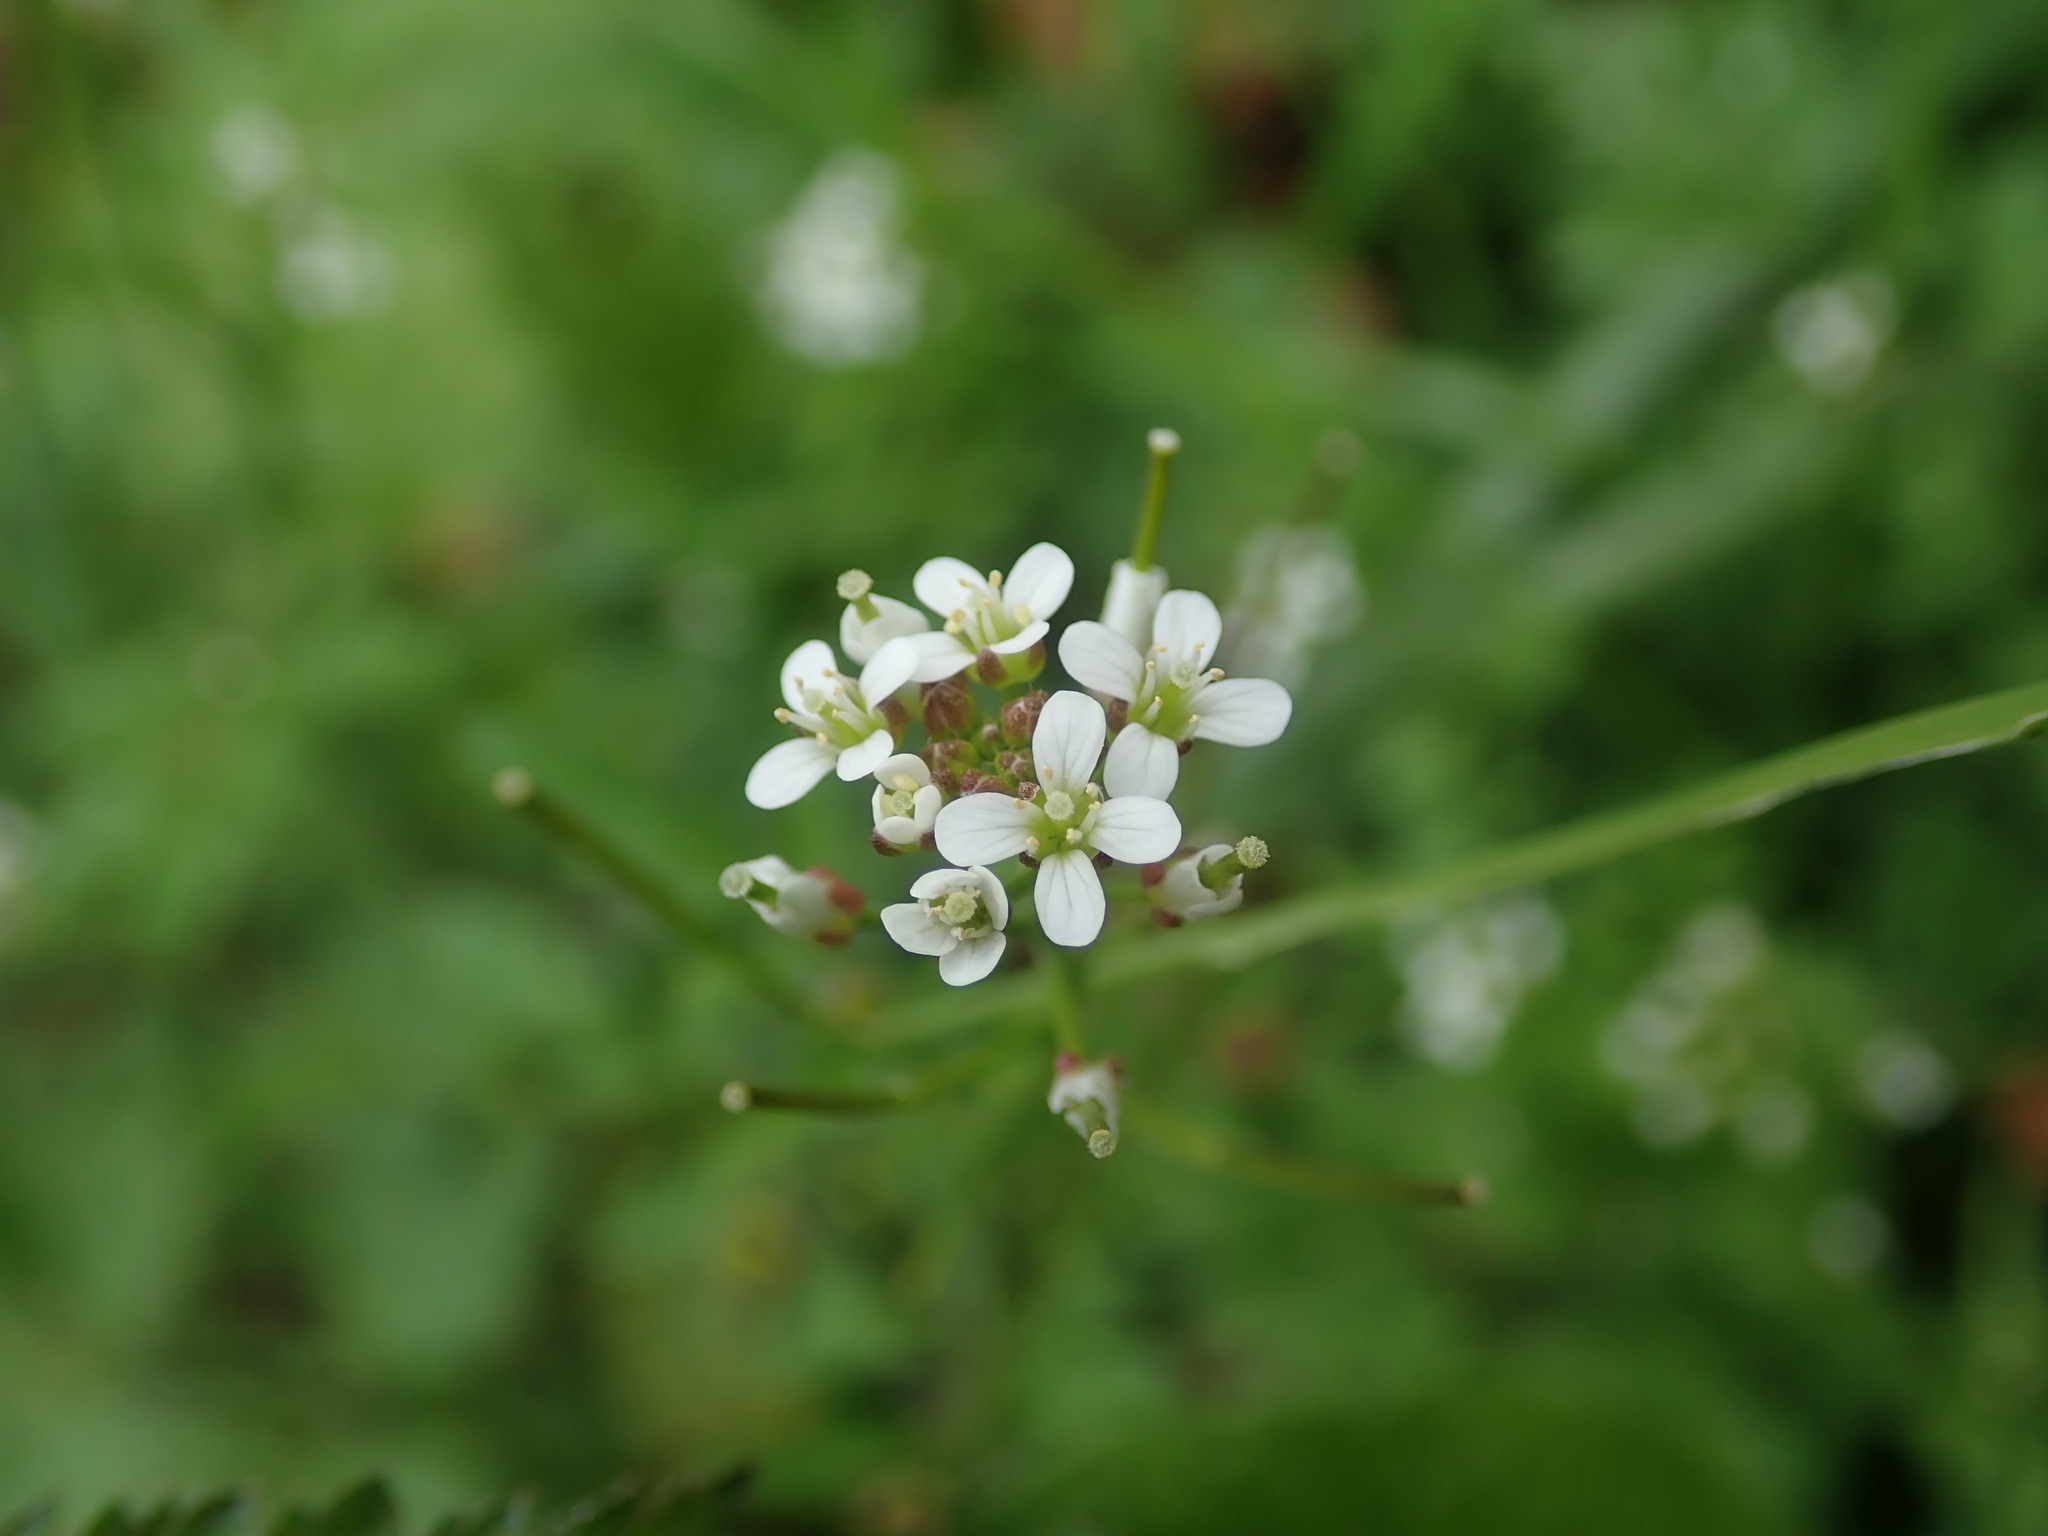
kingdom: Plantae
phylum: Tracheophyta
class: Magnoliopsida
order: Brassicales
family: Brassicaceae
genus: Cardamine
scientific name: Cardamine flexuosa
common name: Woodland bittercress
